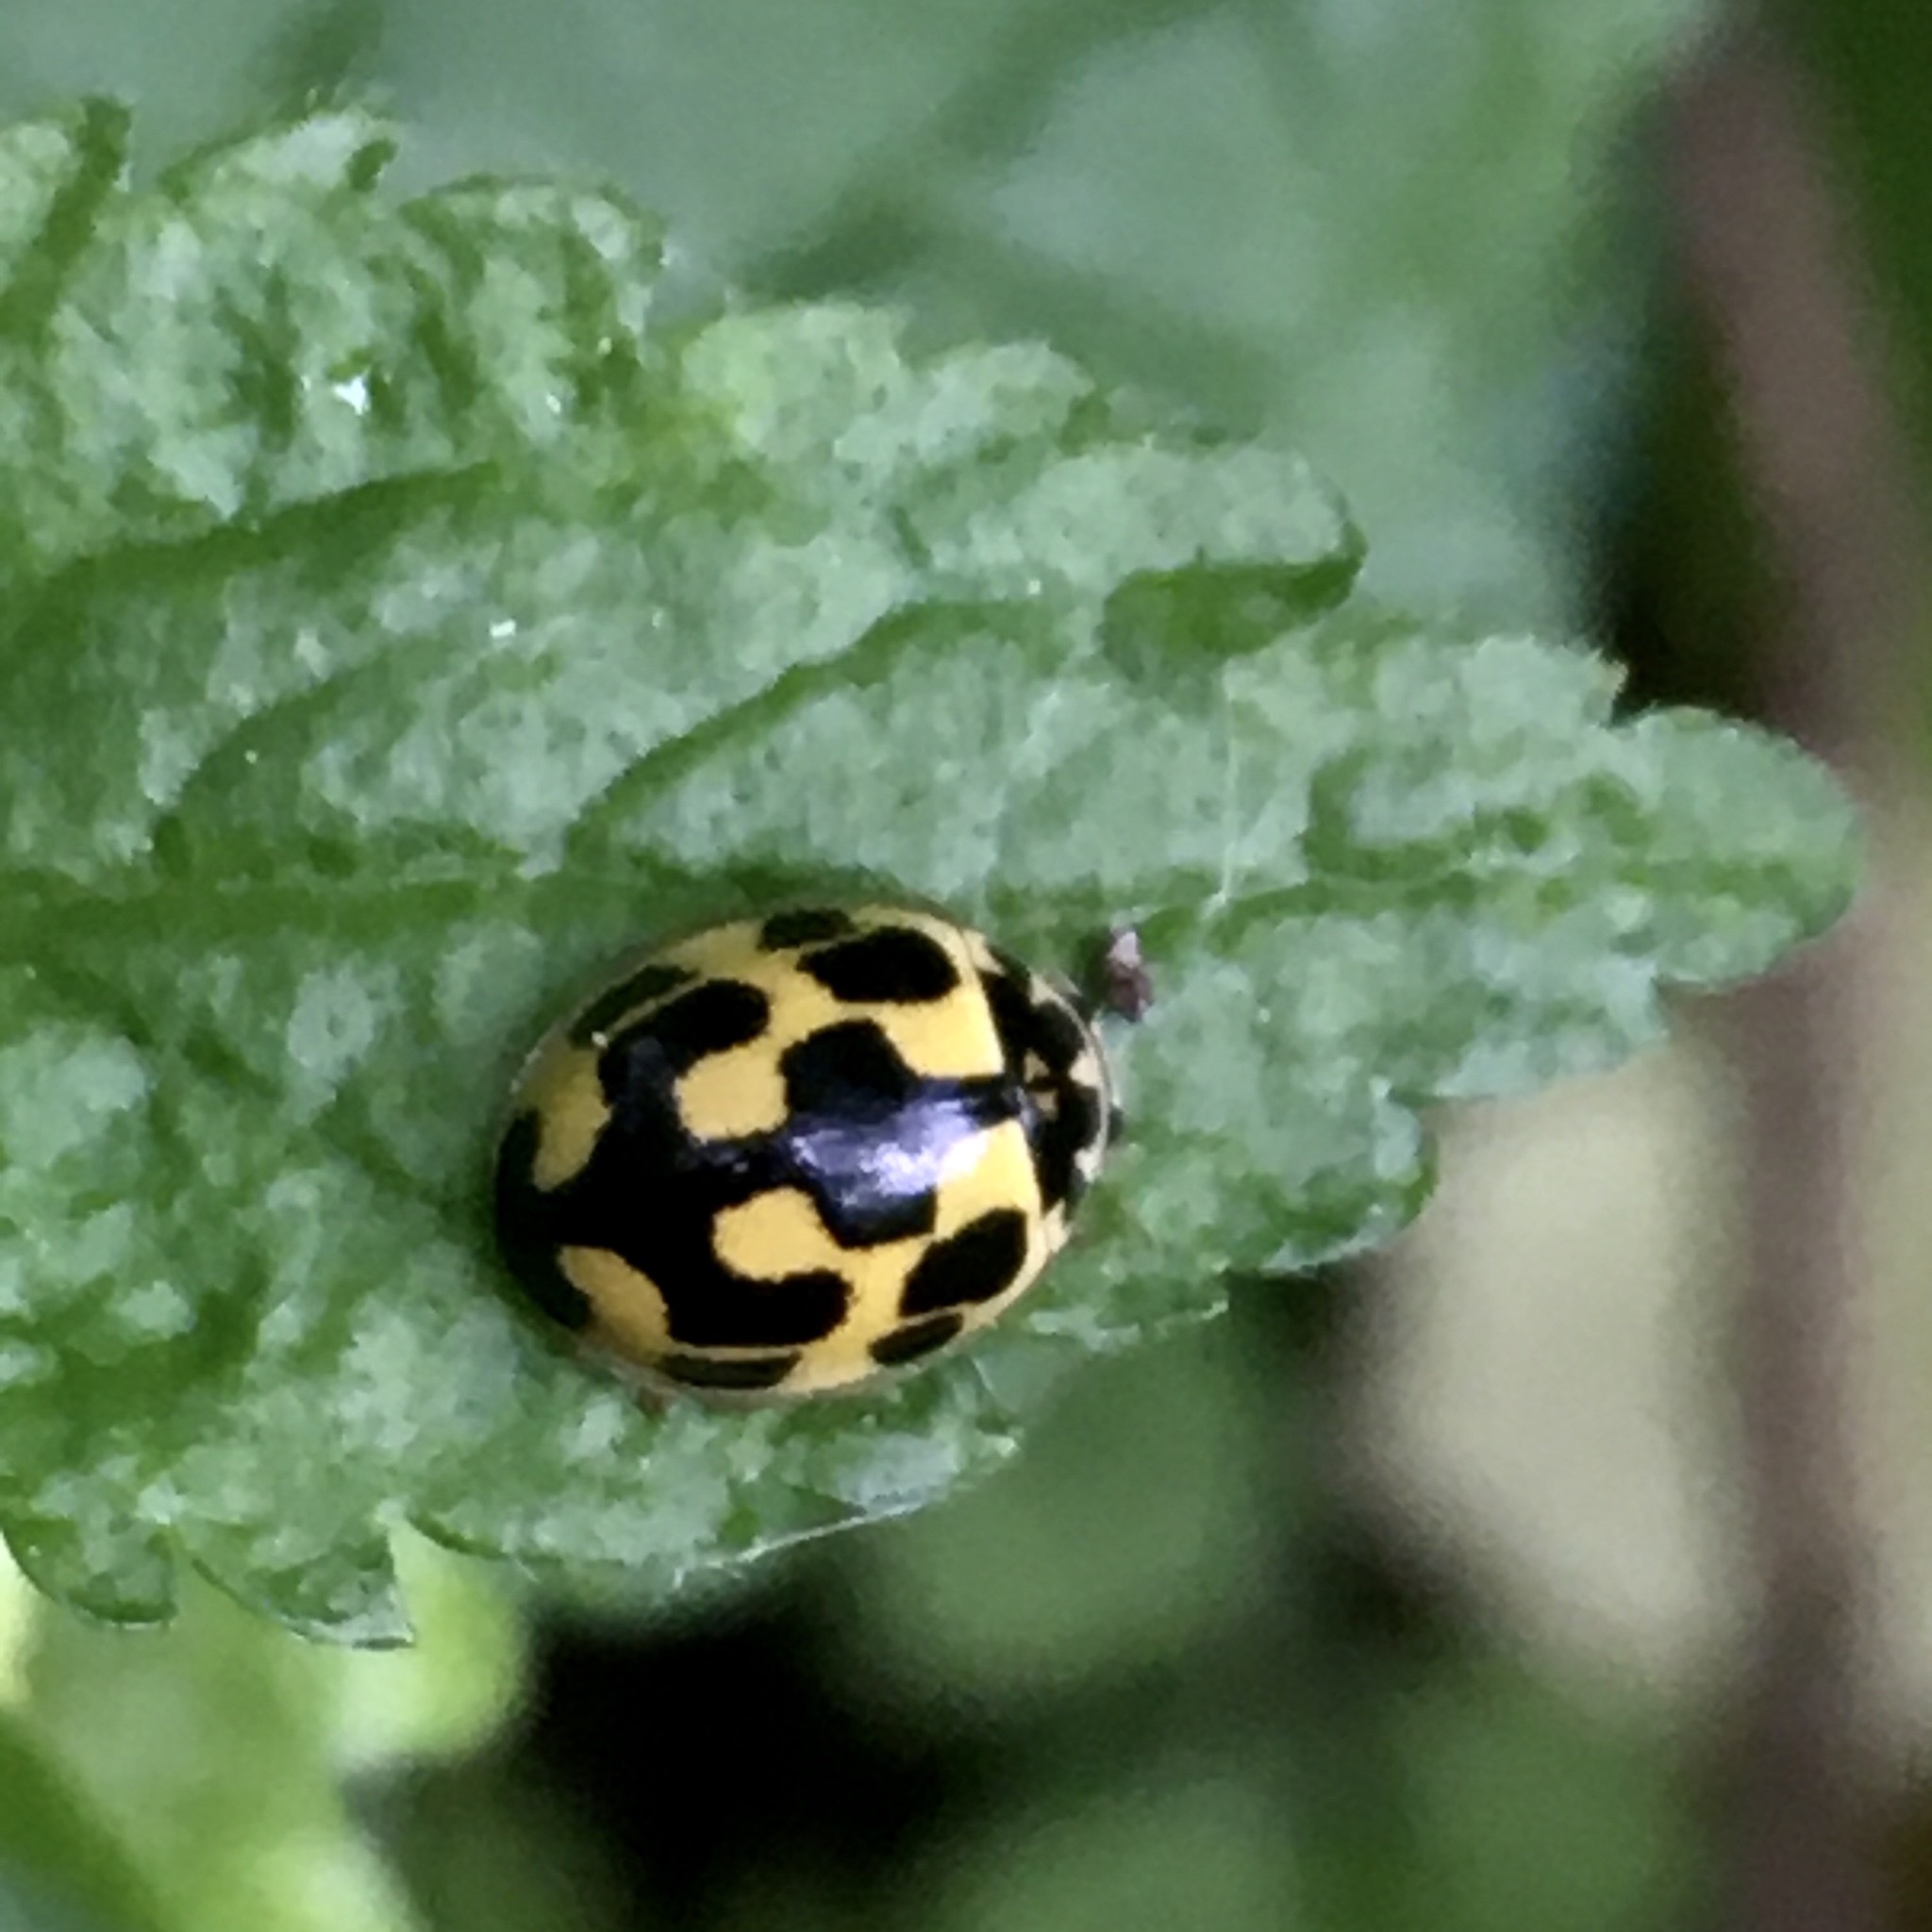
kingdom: Animalia
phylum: Arthropoda
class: Insecta
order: Coleoptera
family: Coccinellidae
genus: Propylaea
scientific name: Propylaea quatuordecimpunctata
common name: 14-spotted ladybird beetle
